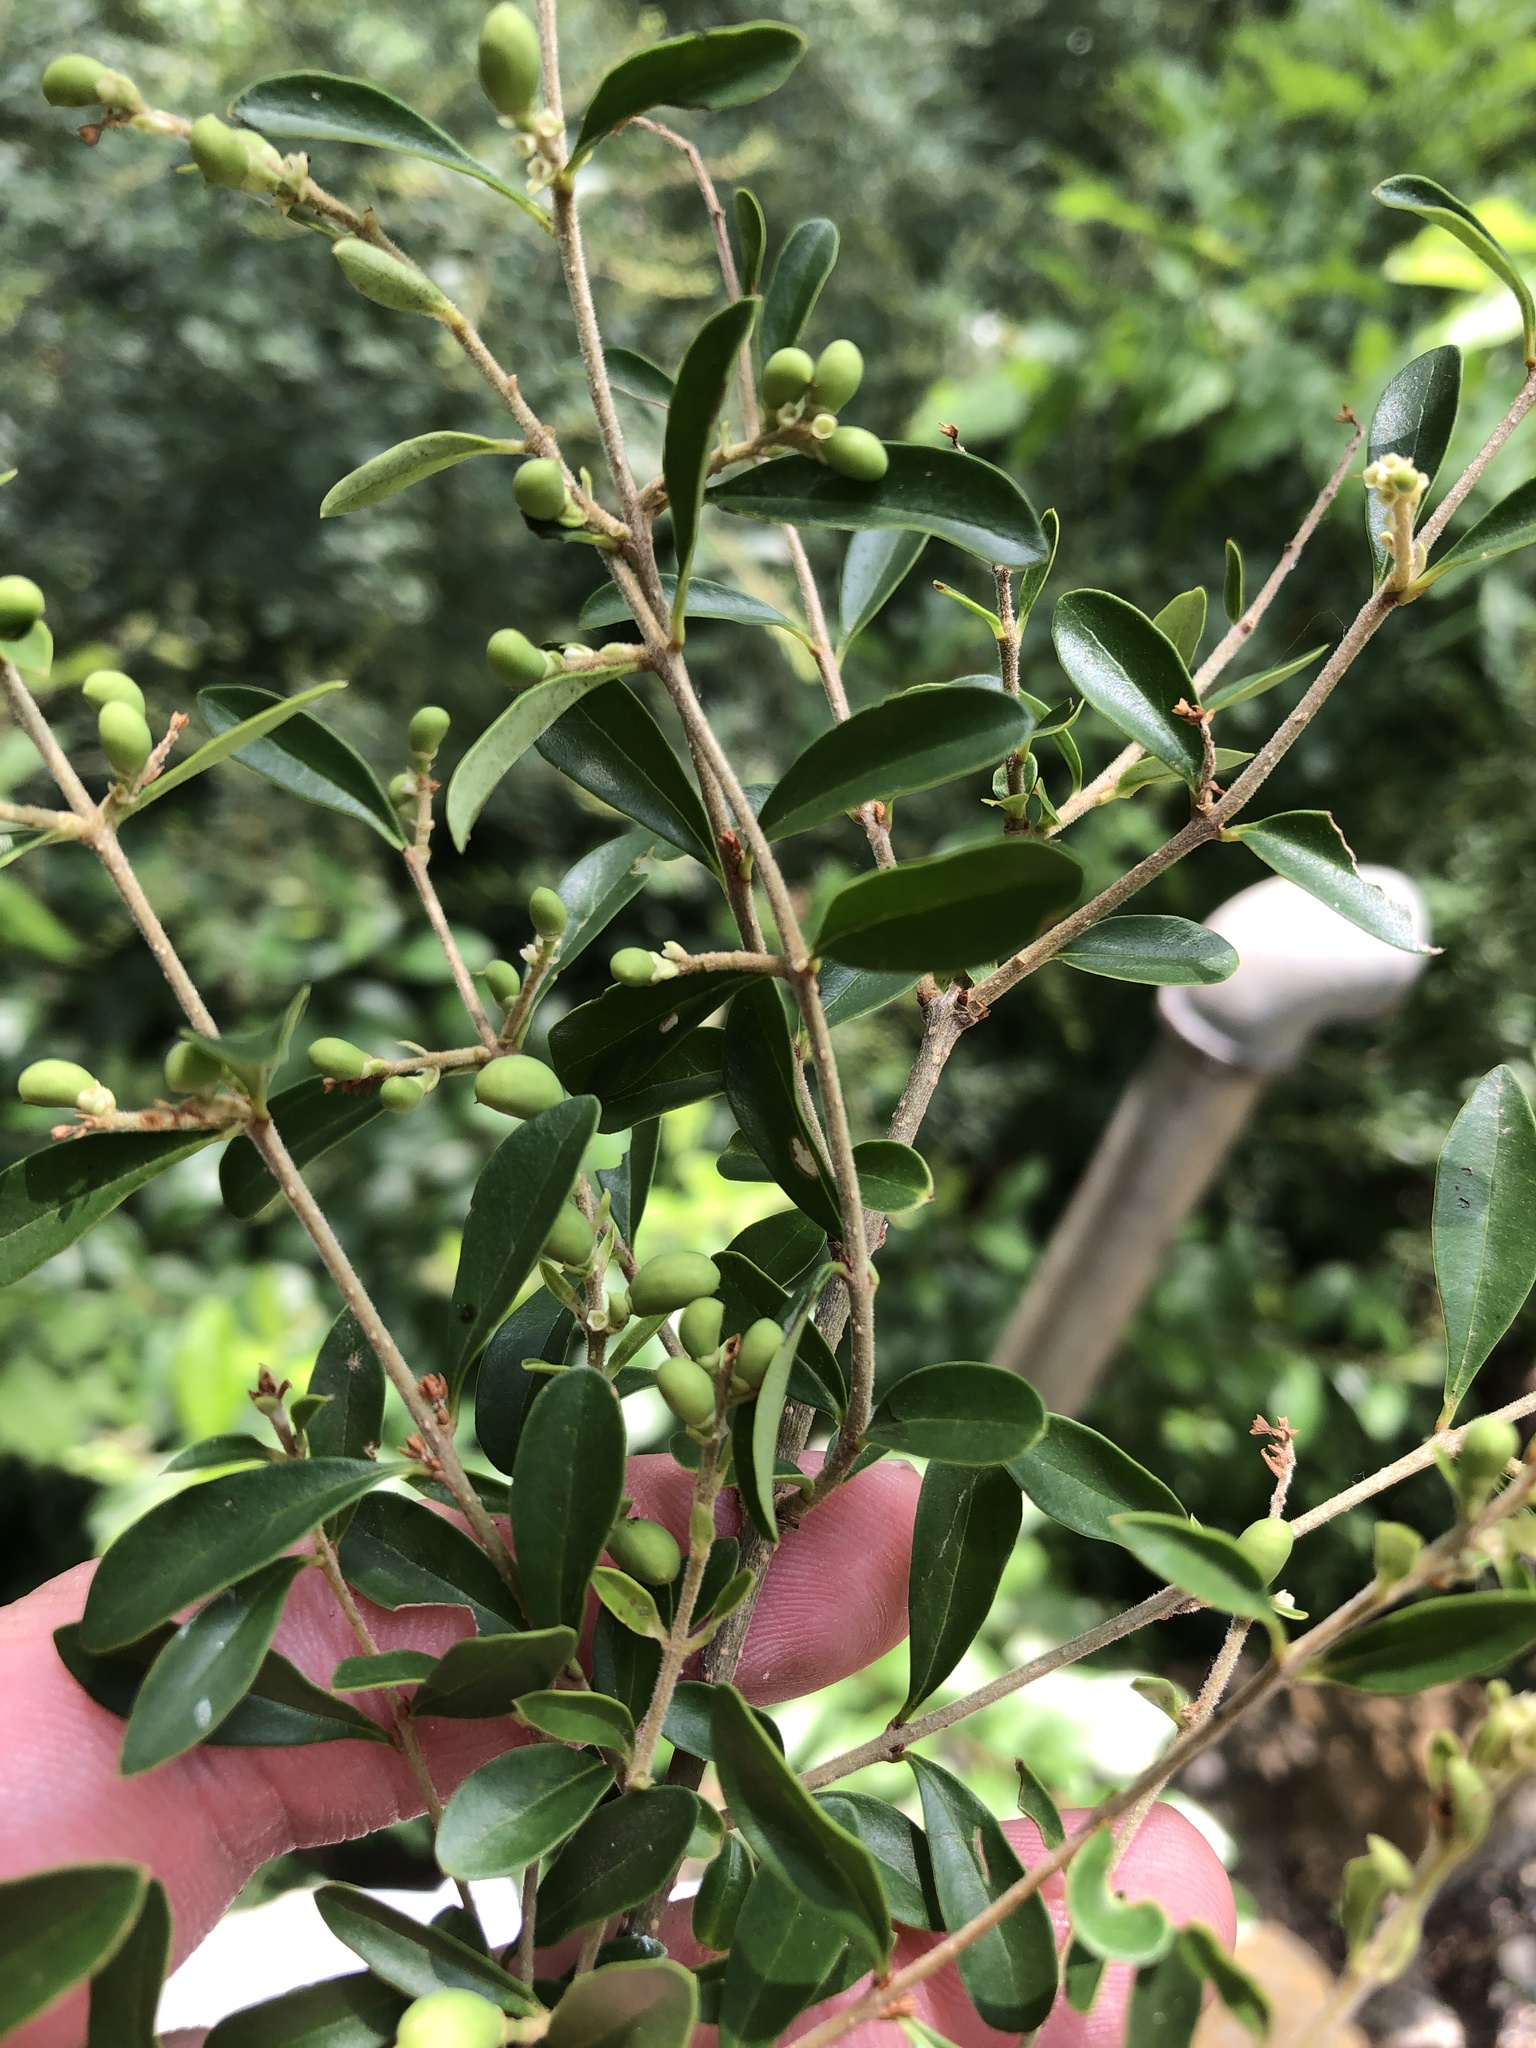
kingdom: Plantae
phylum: Tracheophyta
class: Magnoliopsida
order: Lamiales
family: Oleaceae
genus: Ligustrum
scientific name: Ligustrum quihoui
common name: Waxyleaf privet
